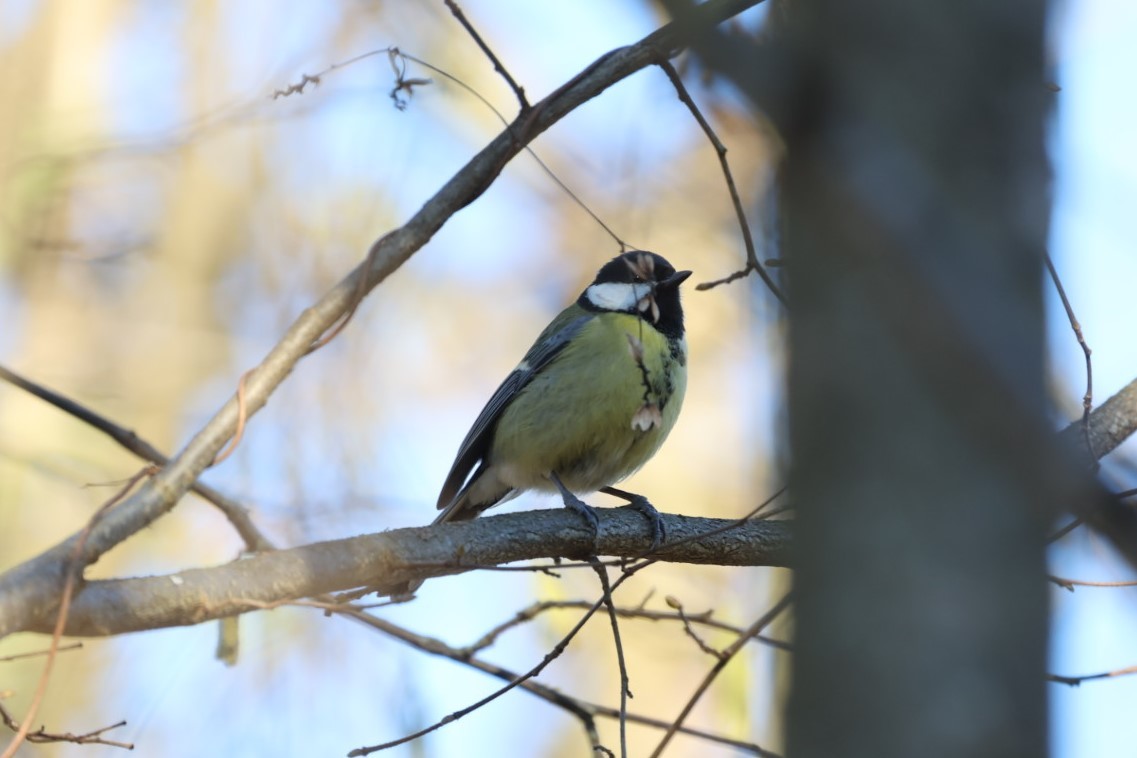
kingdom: Animalia
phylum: Chordata
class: Aves
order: Passeriformes
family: Paridae
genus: Parus
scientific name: Parus major
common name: Great tit
